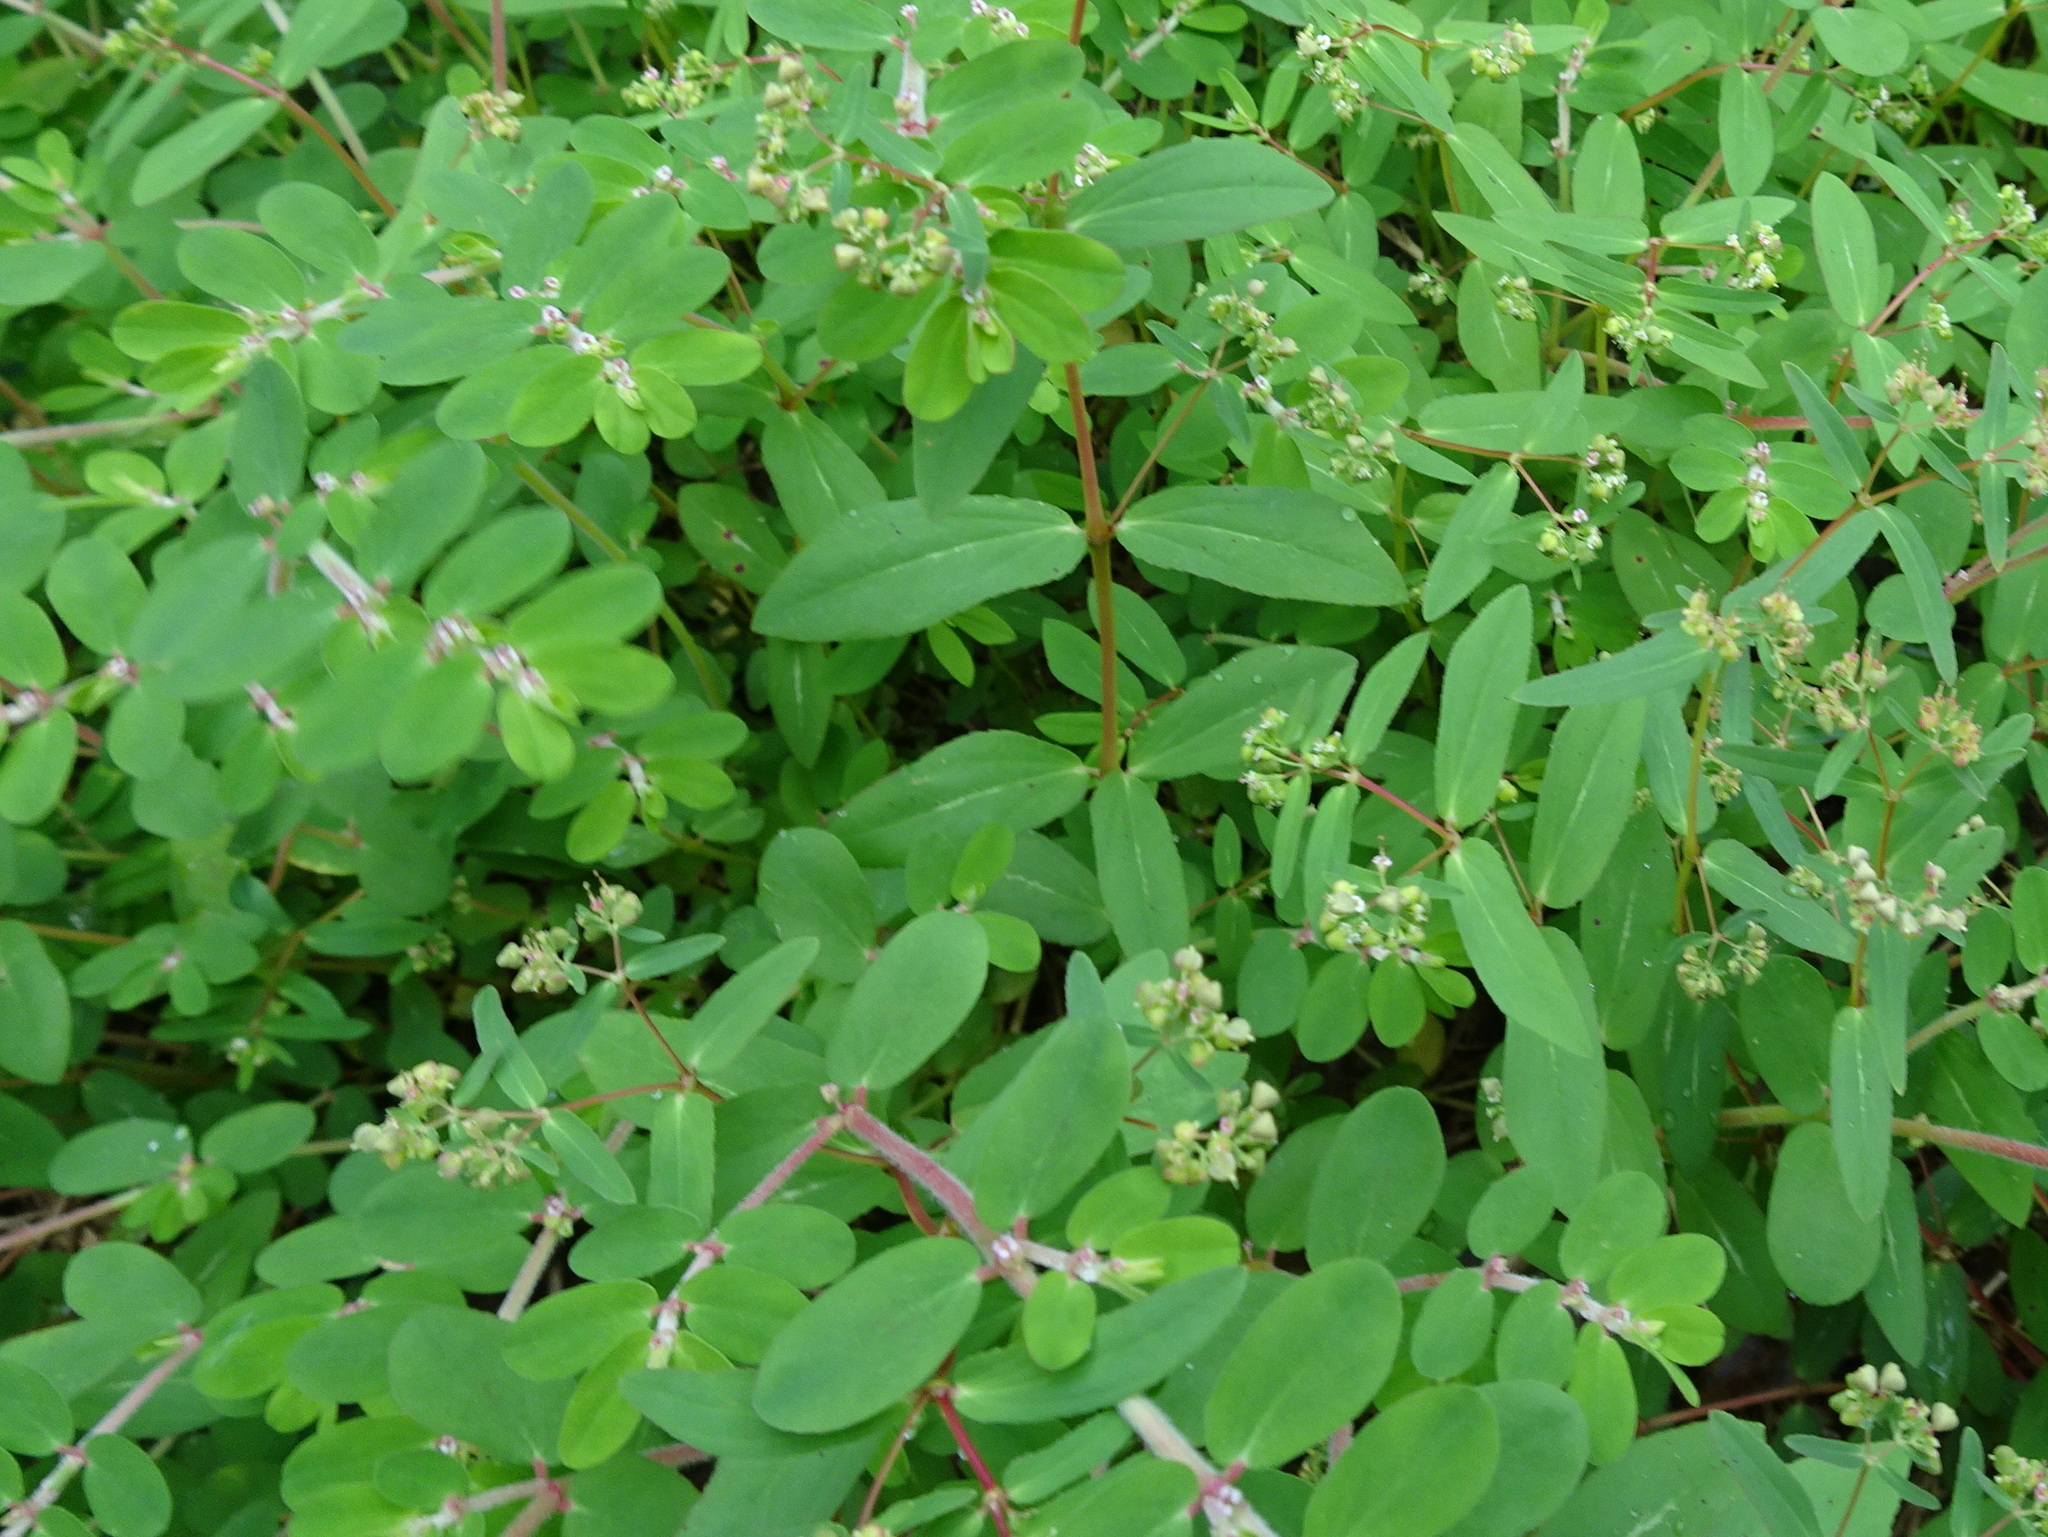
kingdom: Plantae
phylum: Tracheophyta
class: Magnoliopsida
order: Malpighiales
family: Euphorbiaceae
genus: Euphorbia
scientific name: Euphorbia humistrata
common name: Hairy spreading spurge
